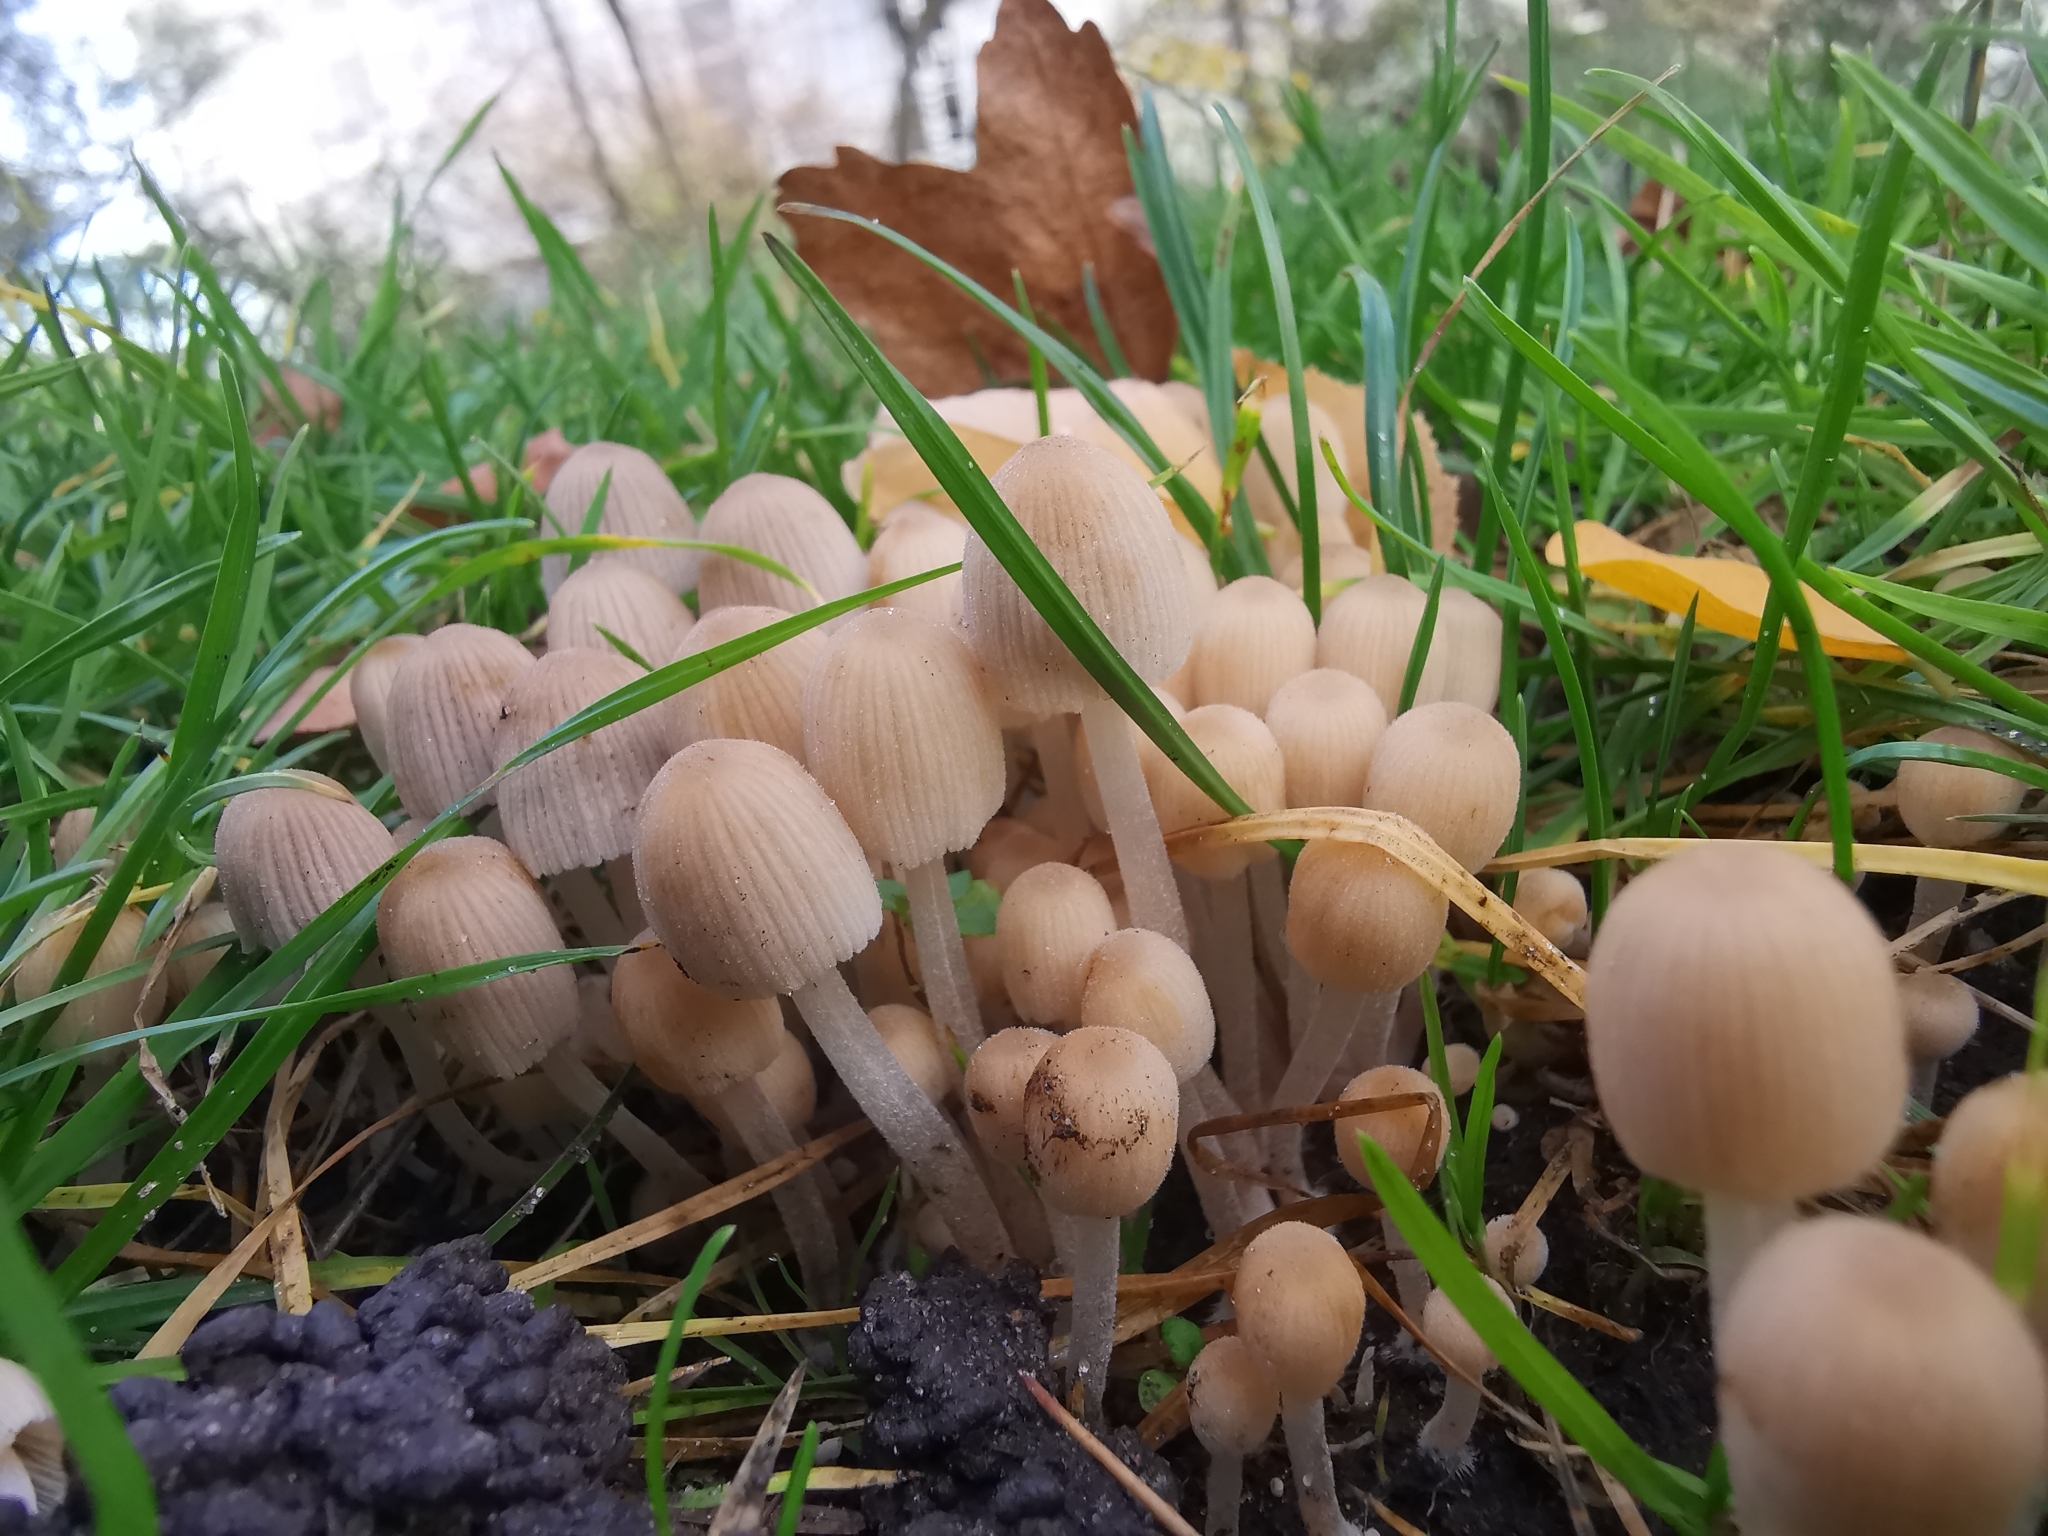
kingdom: Fungi
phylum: Basidiomycota
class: Agaricomycetes
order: Agaricales
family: Psathyrellaceae
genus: Coprinellus
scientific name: Coprinellus disseminatus
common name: Fairies' bonnets
